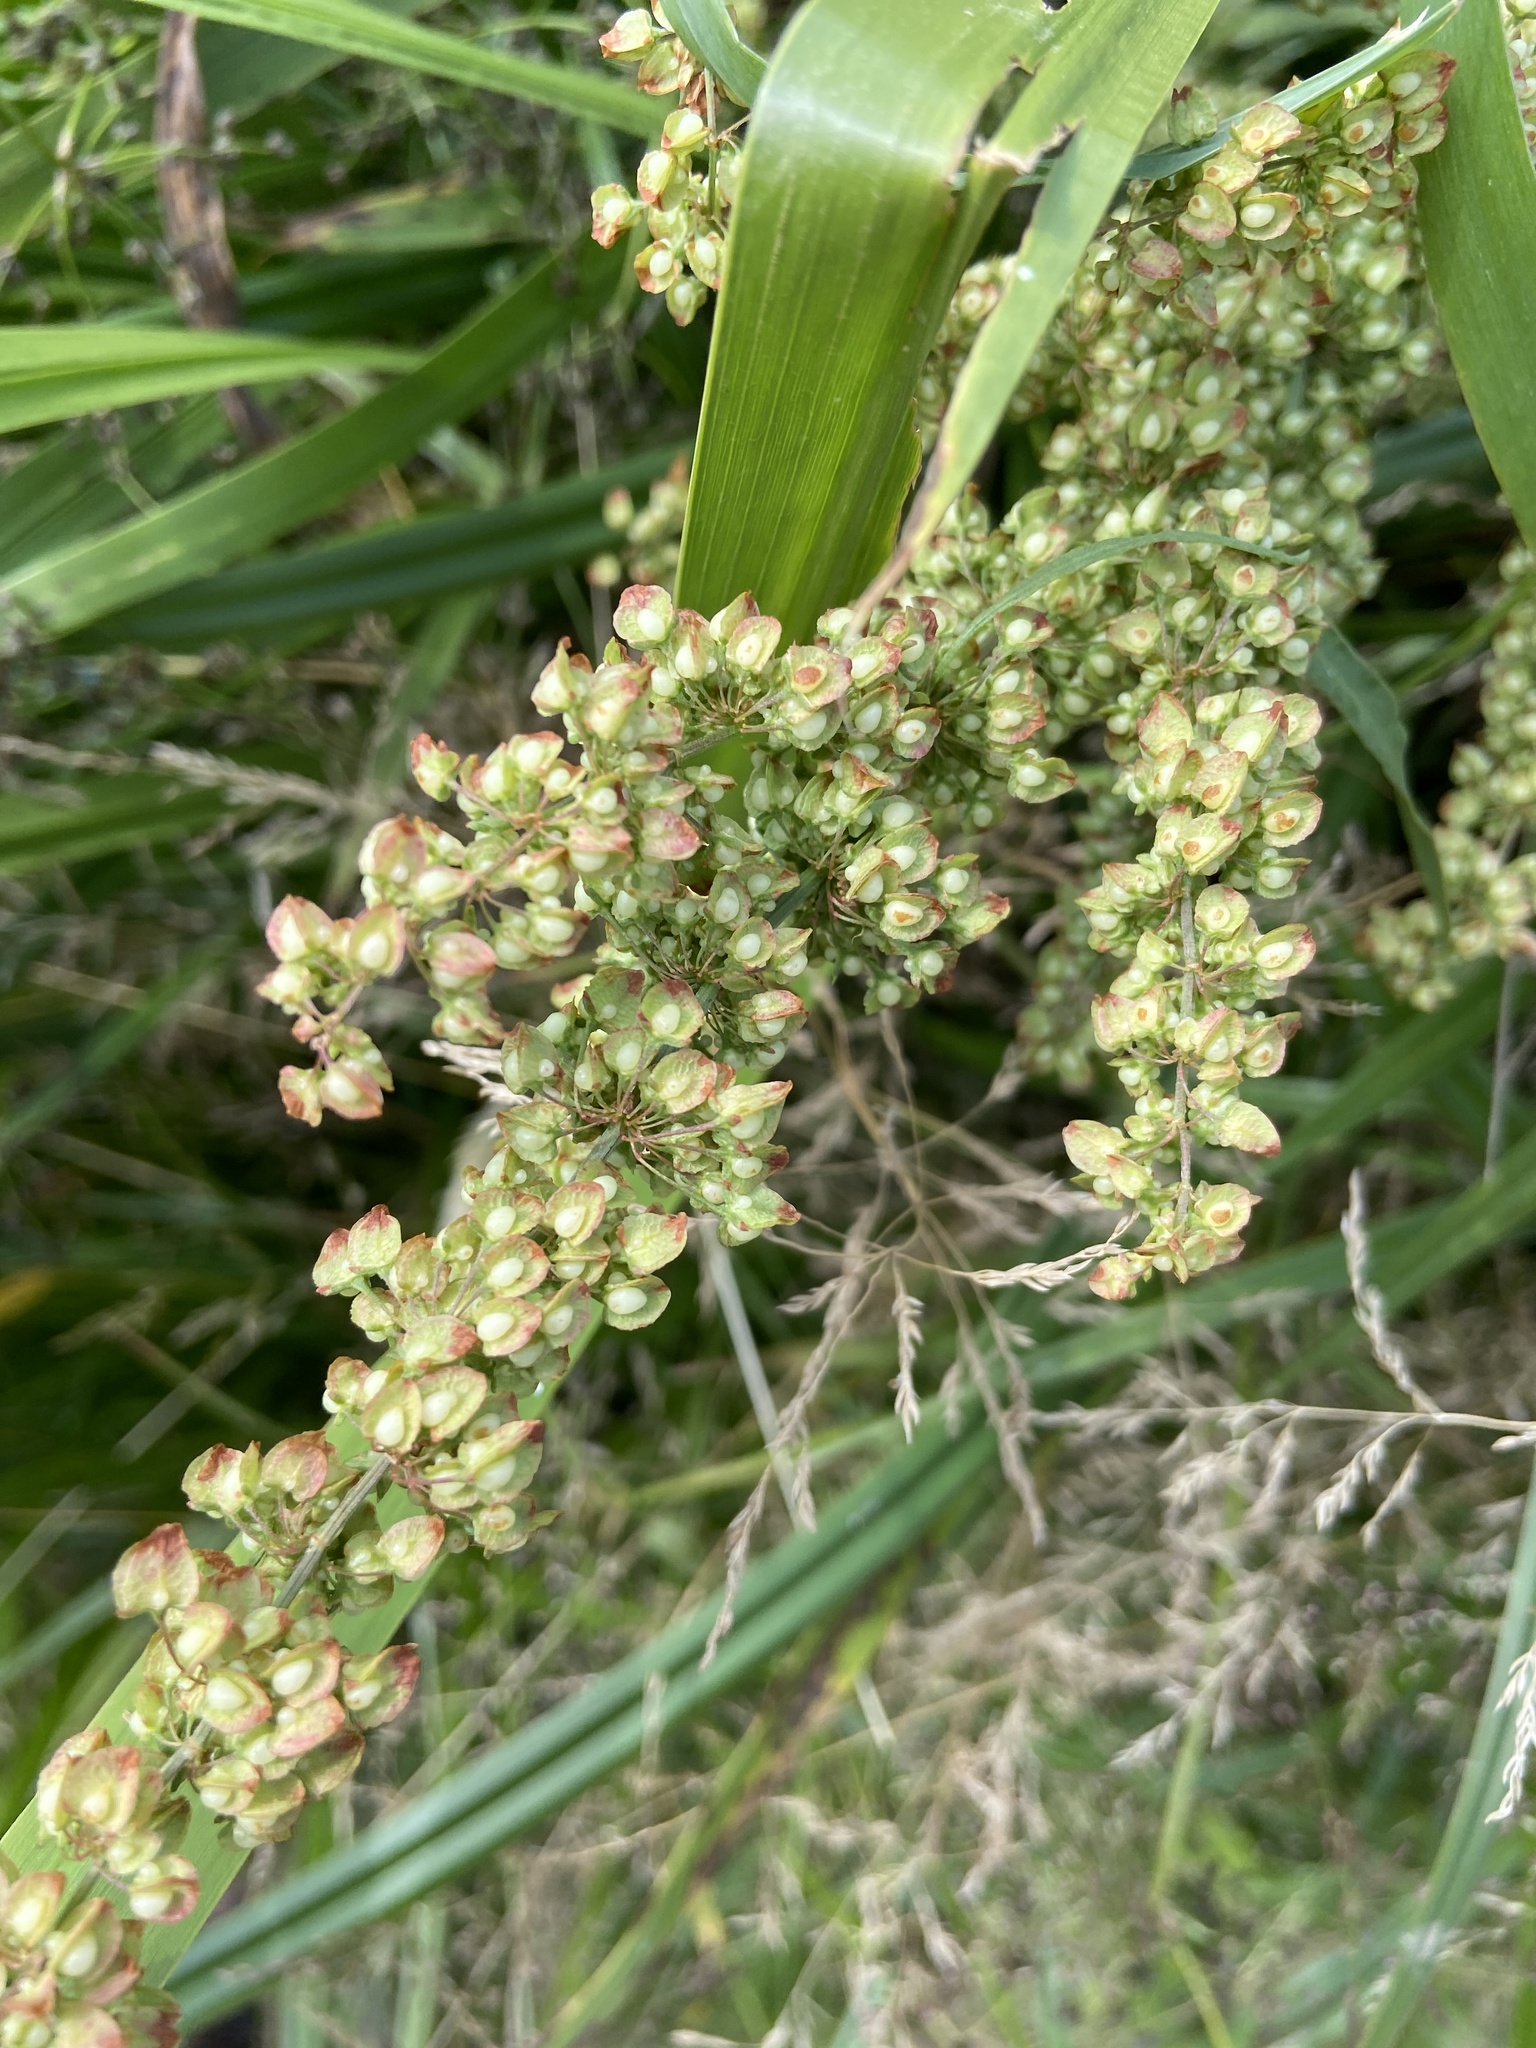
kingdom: Plantae
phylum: Tracheophyta
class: Magnoliopsida
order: Caryophyllales
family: Polygonaceae
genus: Rumex
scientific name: Rumex crispus
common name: Curled dock
